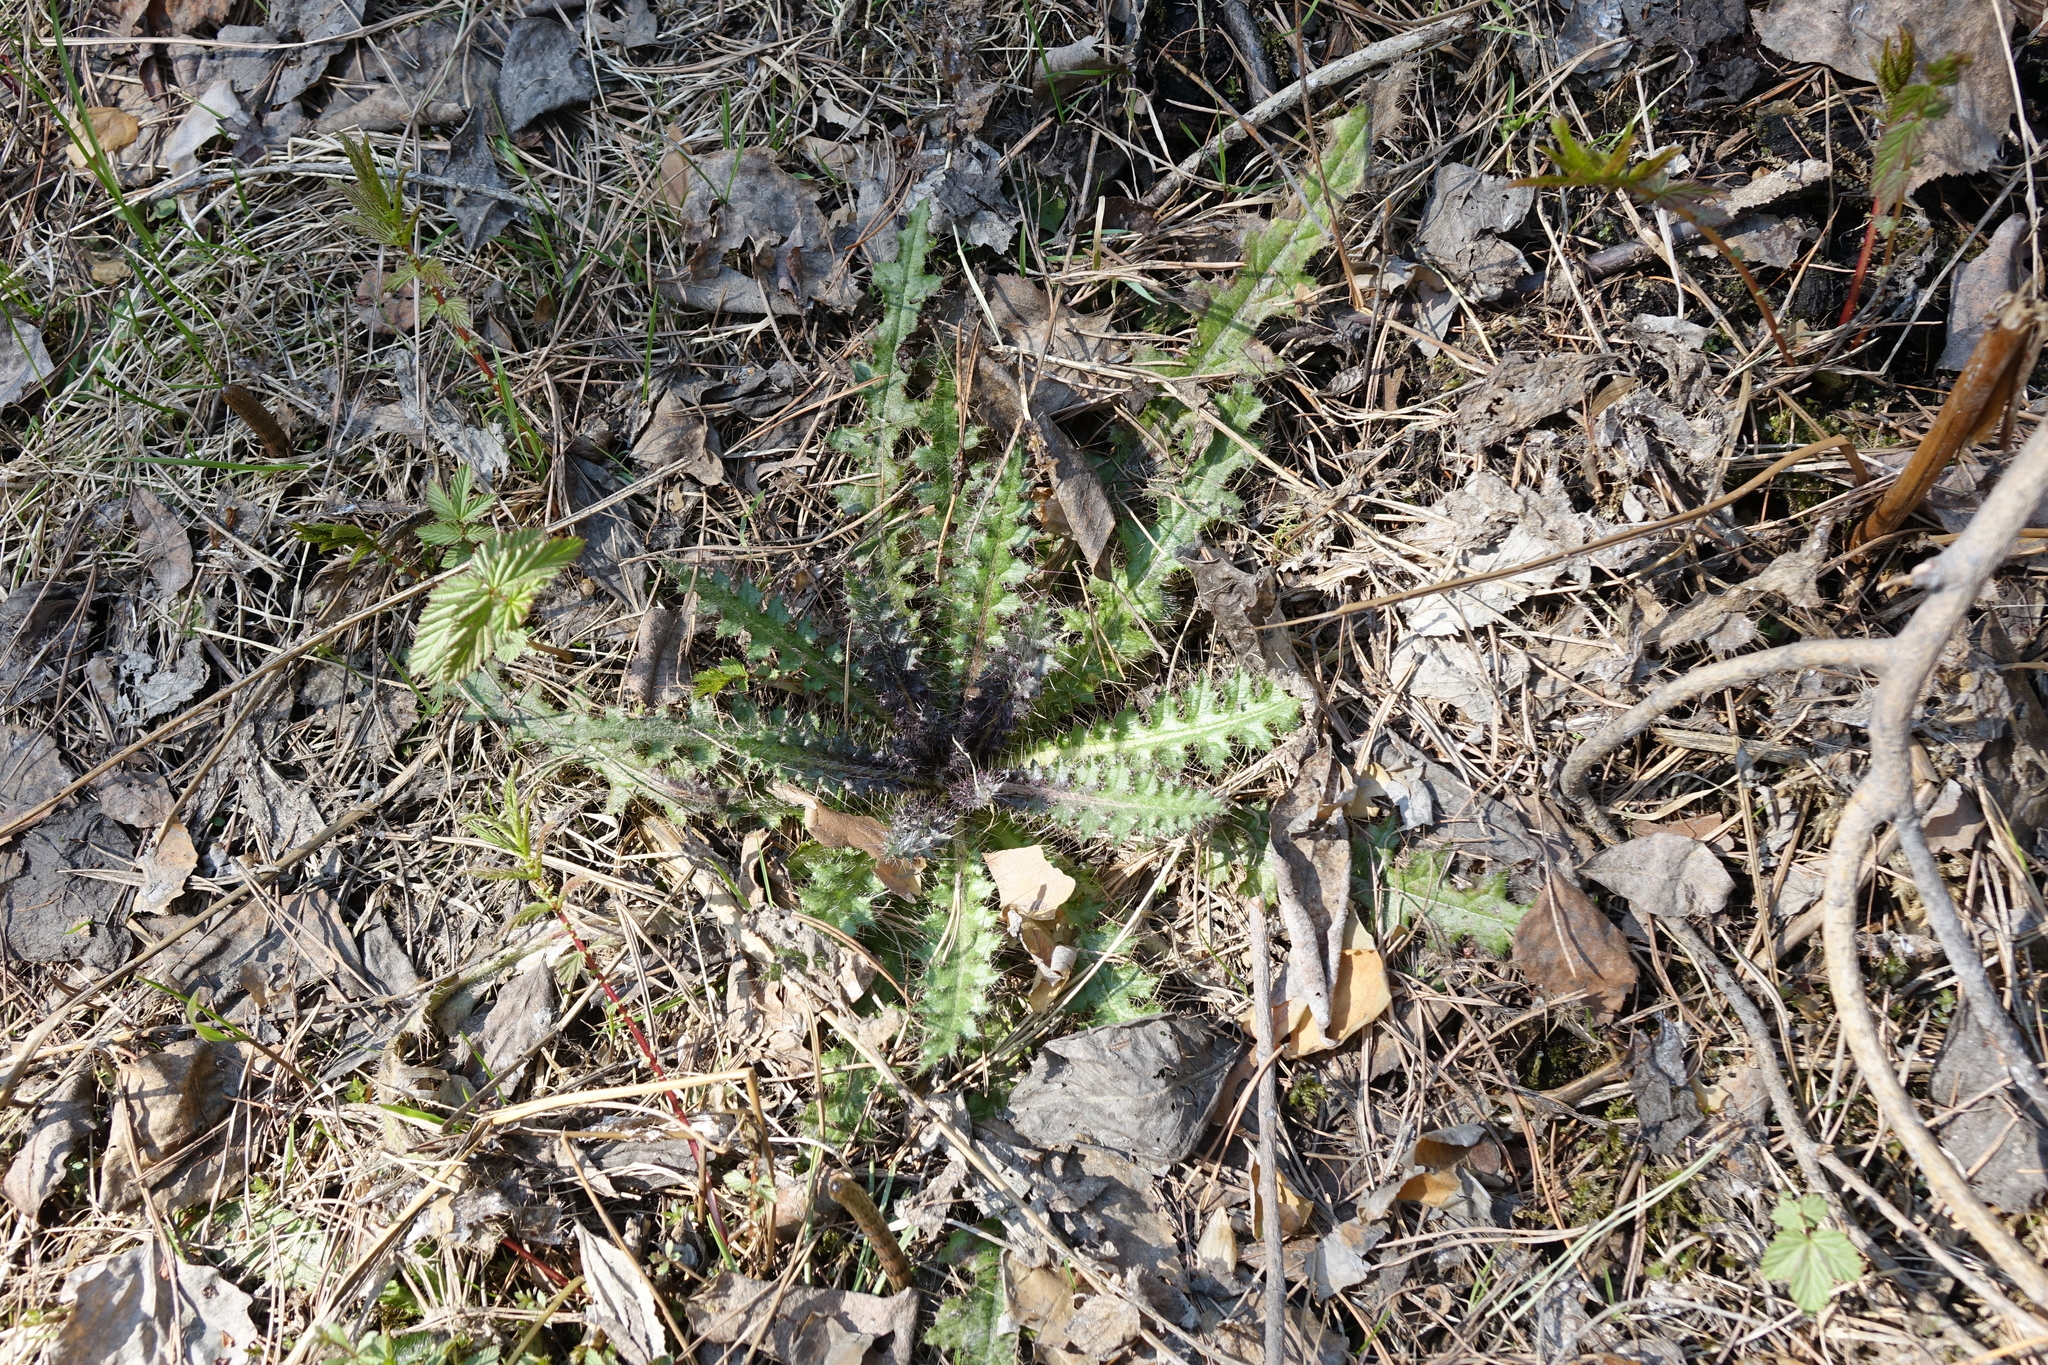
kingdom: Plantae
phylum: Tracheophyta
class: Magnoliopsida
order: Asterales
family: Asteraceae
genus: Cirsium
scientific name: Cirsium palustre
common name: Marsh thistle
